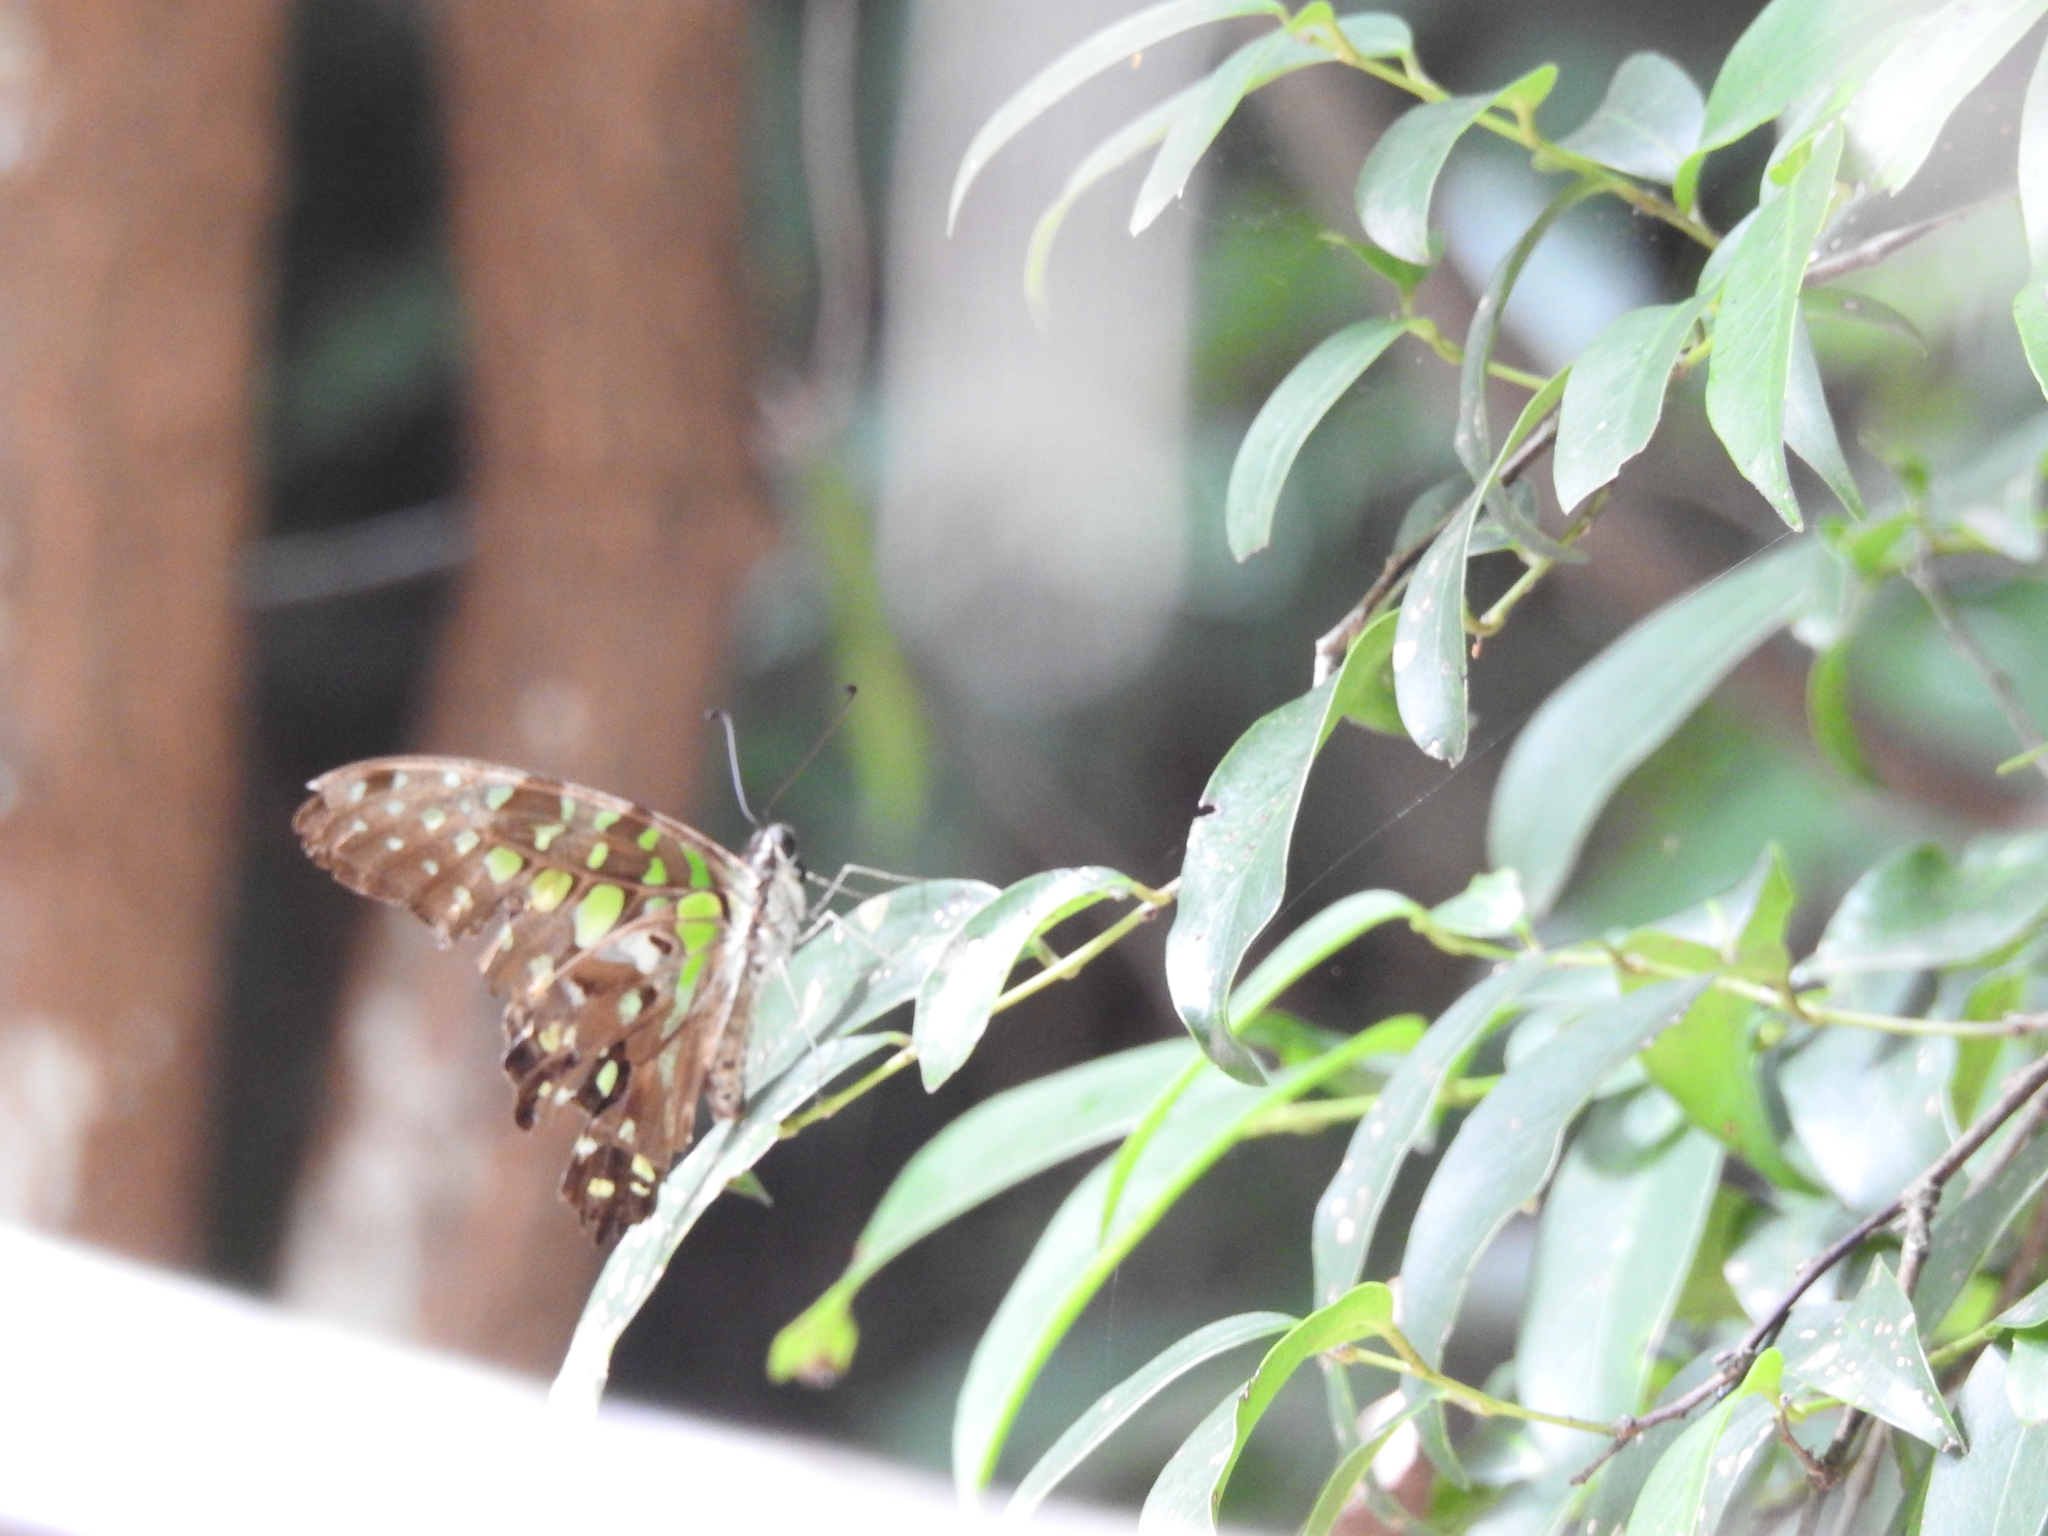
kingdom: Animalia
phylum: Arthropoda
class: Insecta
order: Lepidoptera
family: Papilionidae
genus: Graphium
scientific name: Graphium agamemnon
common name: Tailed jay
